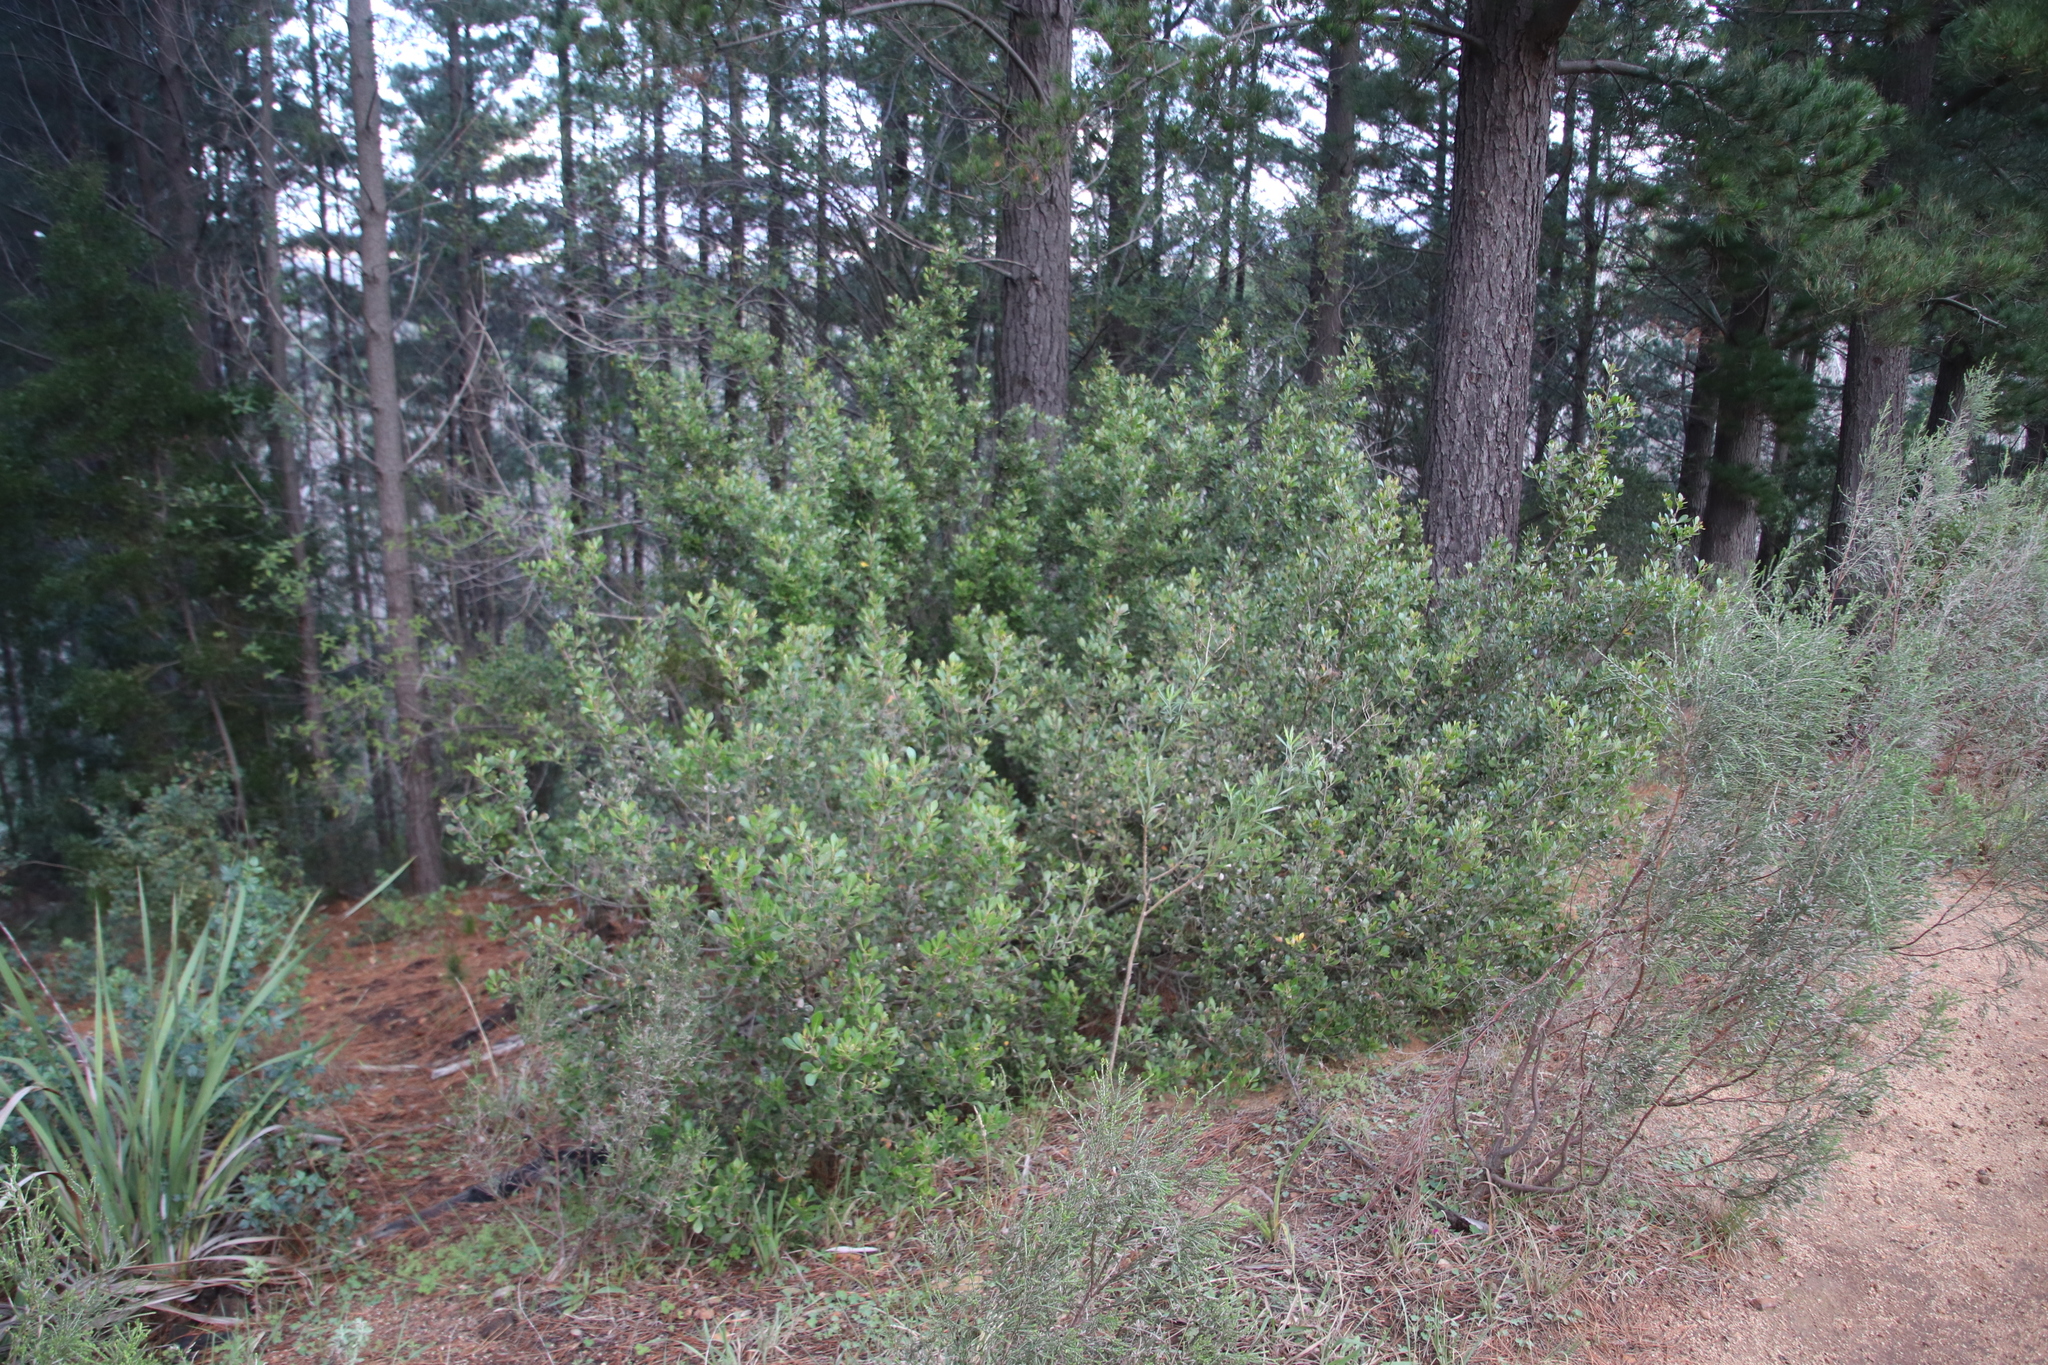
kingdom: Plantae
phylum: Tracheophyta
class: Magnoliopsida
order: Sapindales
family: Anacardiaceae
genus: Searsia
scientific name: Searsia lucida
